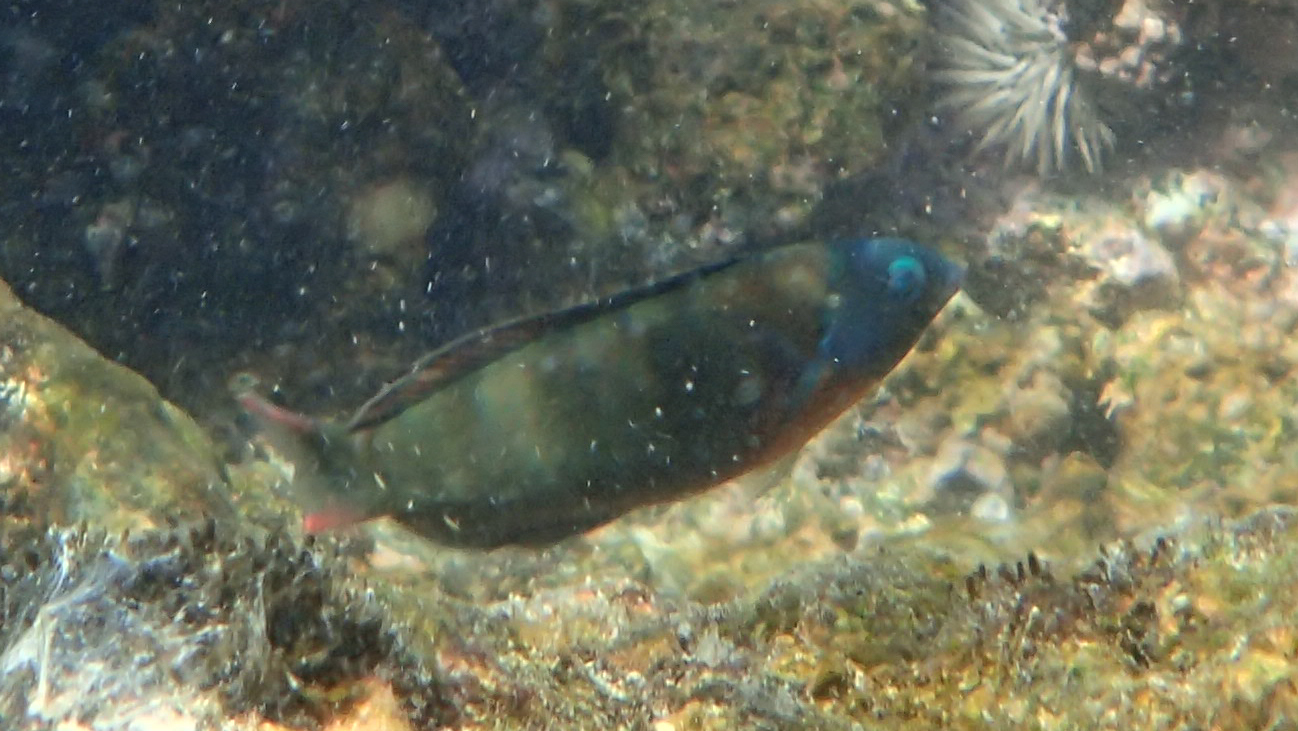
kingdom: Animalia
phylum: Chordata
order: Perciformes
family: Labridae
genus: Thalassoma
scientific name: Thalassoma duperrey
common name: Saddle wrasse
